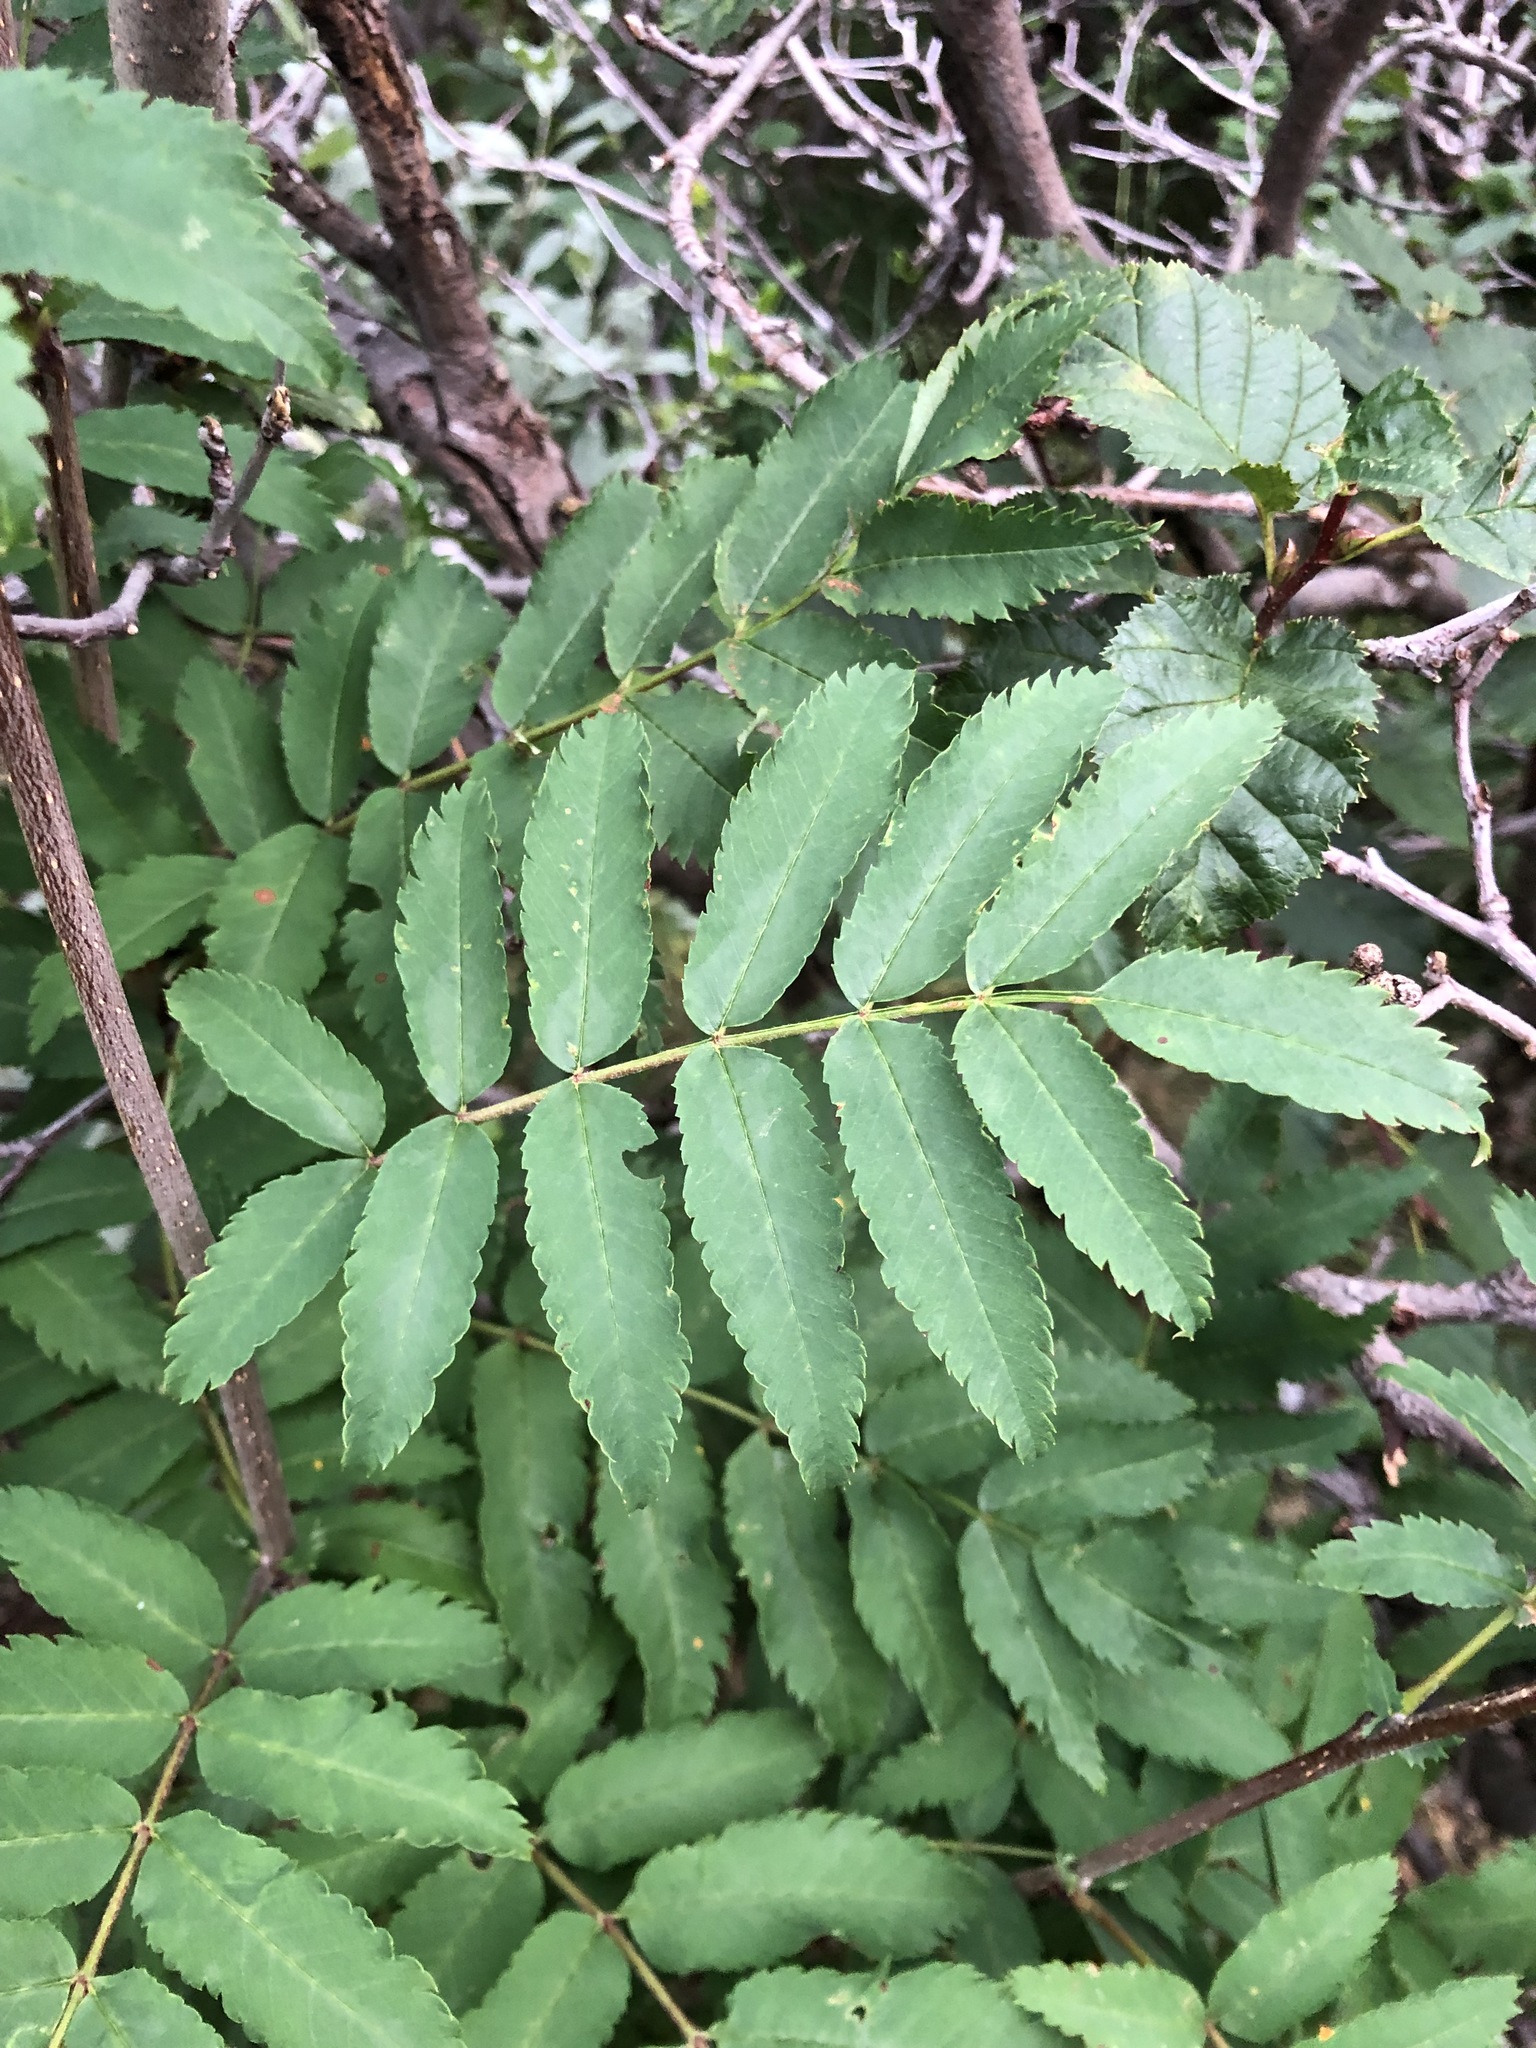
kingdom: Plantae
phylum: Tracheophyta
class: Magnoliopsida
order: Rosales
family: Rosaceae
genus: Sorbus
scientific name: Sorbus aucuparia
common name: Rowan
